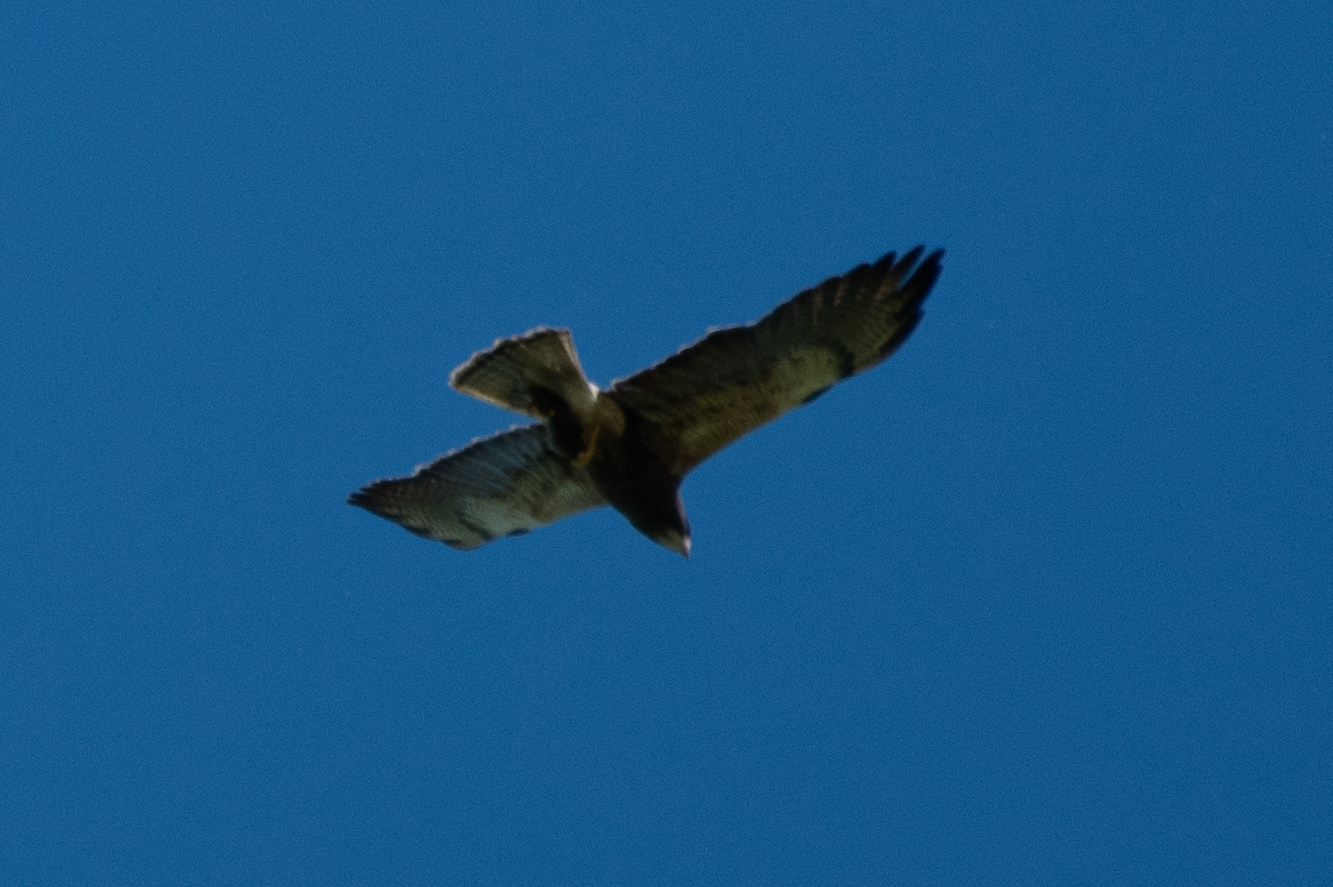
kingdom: Animalia
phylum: Chordata
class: Aves
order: Accipitriformes
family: Accipitridae
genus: Buteo
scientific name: Buteo swainsoni
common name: Swainson's hawk
